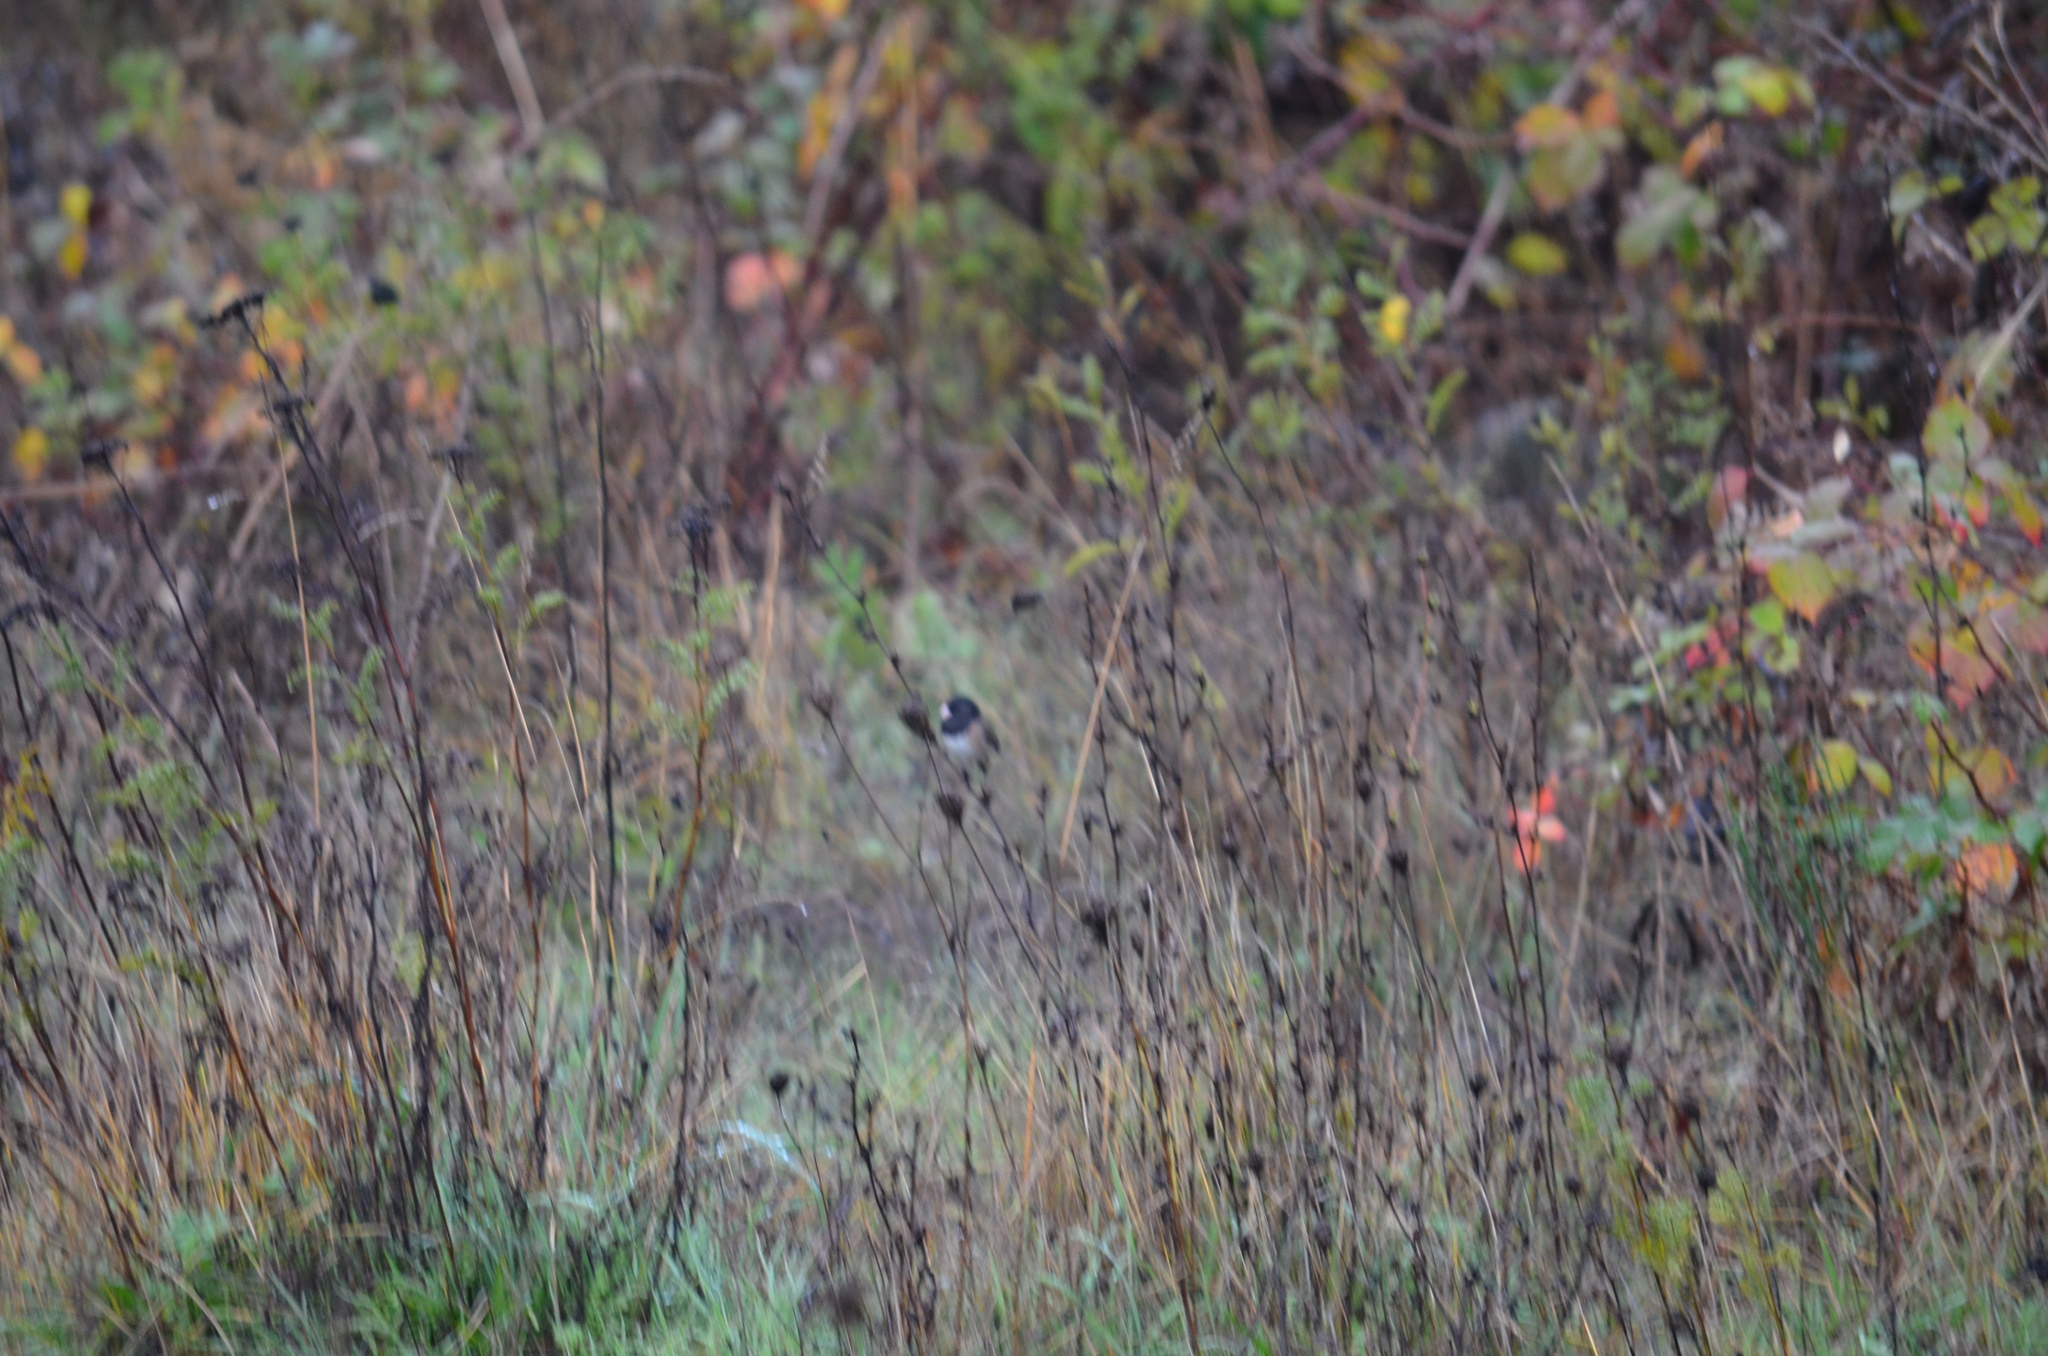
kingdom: Animalia
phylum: Chordata
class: Aves
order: Passeriformes
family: Passerellidae
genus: Junco
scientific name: Junco hyemalis
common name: Dark-eyed junco
